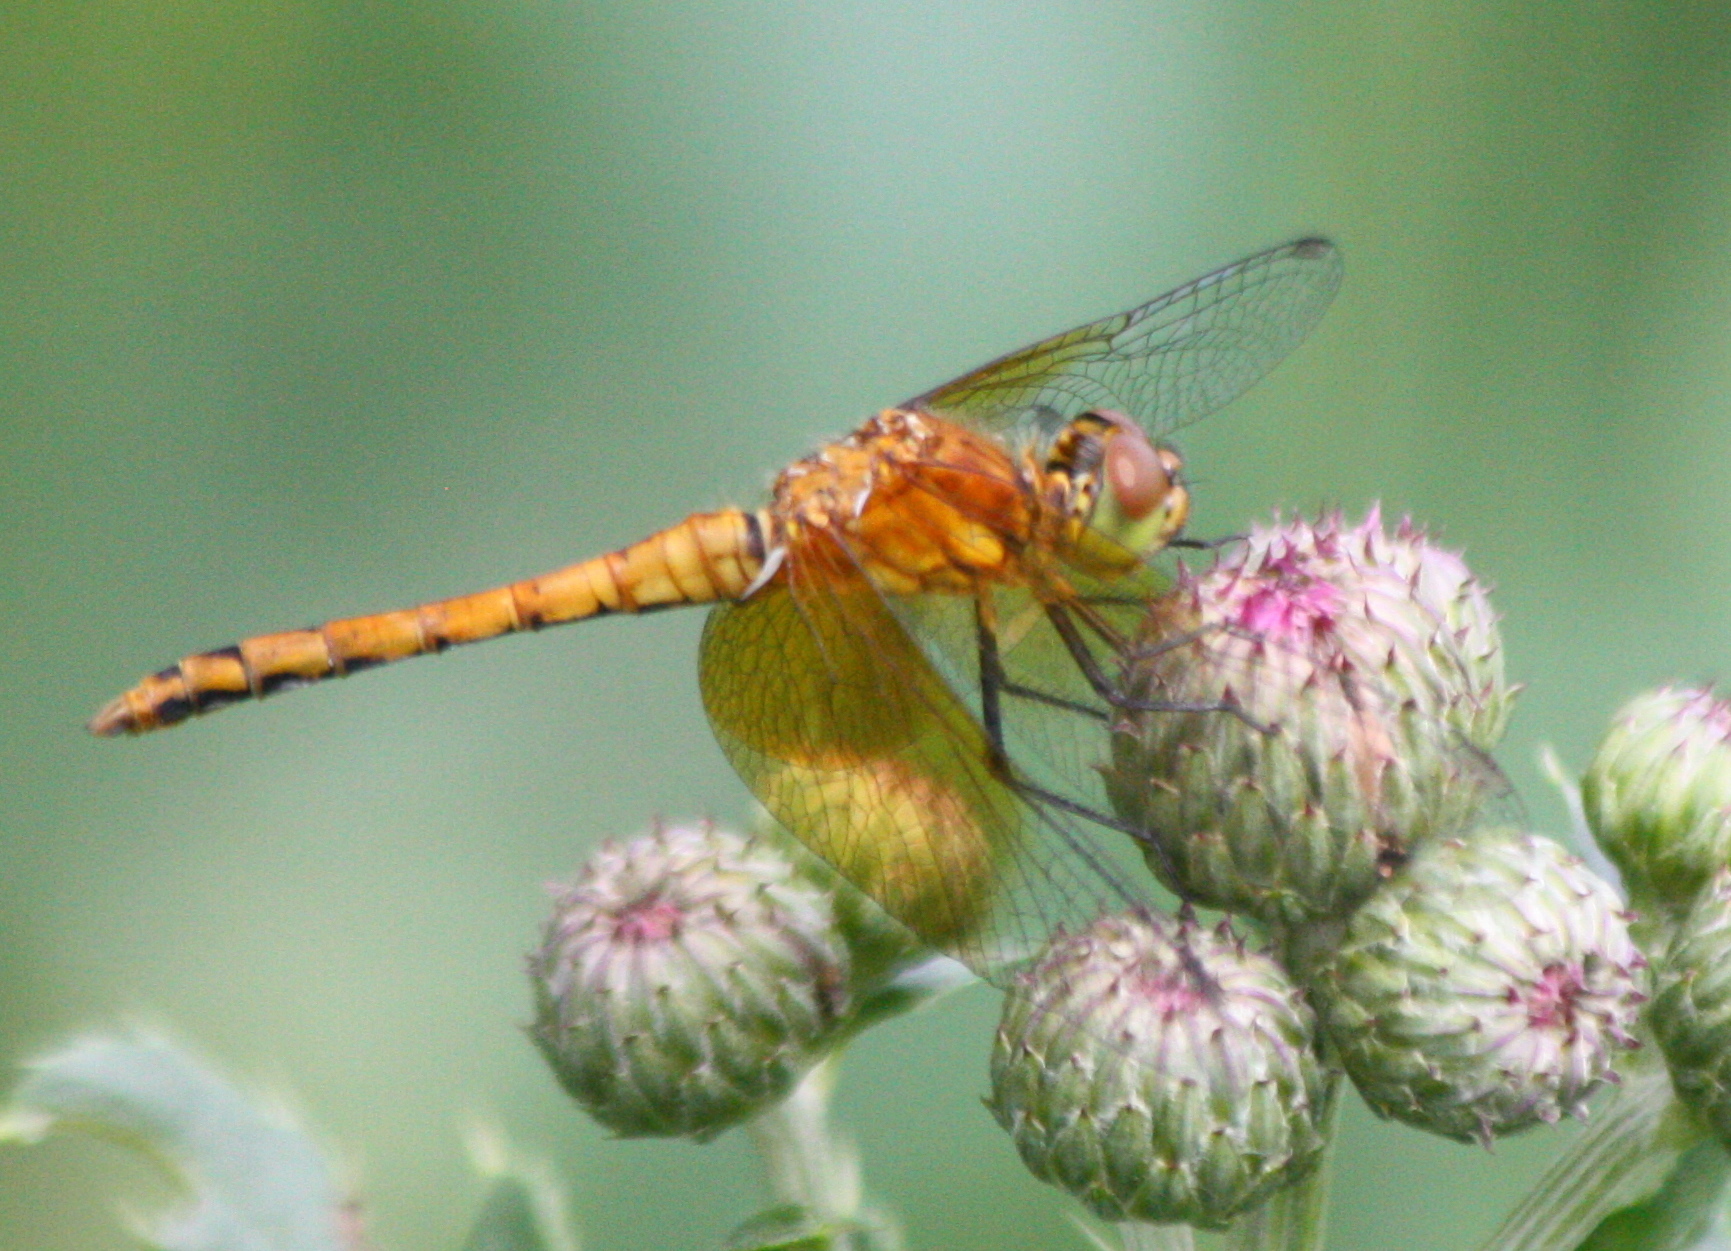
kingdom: Animalia
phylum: Arthropoda
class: Insecta
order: Odonata
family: Libellulidae
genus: Sympetrum
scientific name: Sympetrum semicinctum
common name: Band-winged meadowhawk
